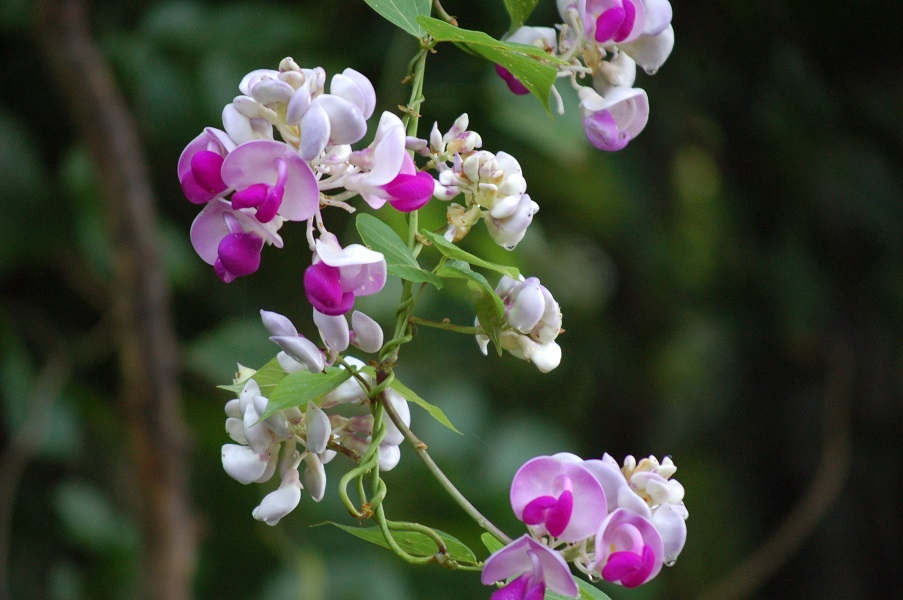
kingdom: Plantae
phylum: Tracheophyta
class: Magnoliopsida
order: Fabales
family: Fabaceae
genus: Ramirezella
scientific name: Ramirezella penduliflora
